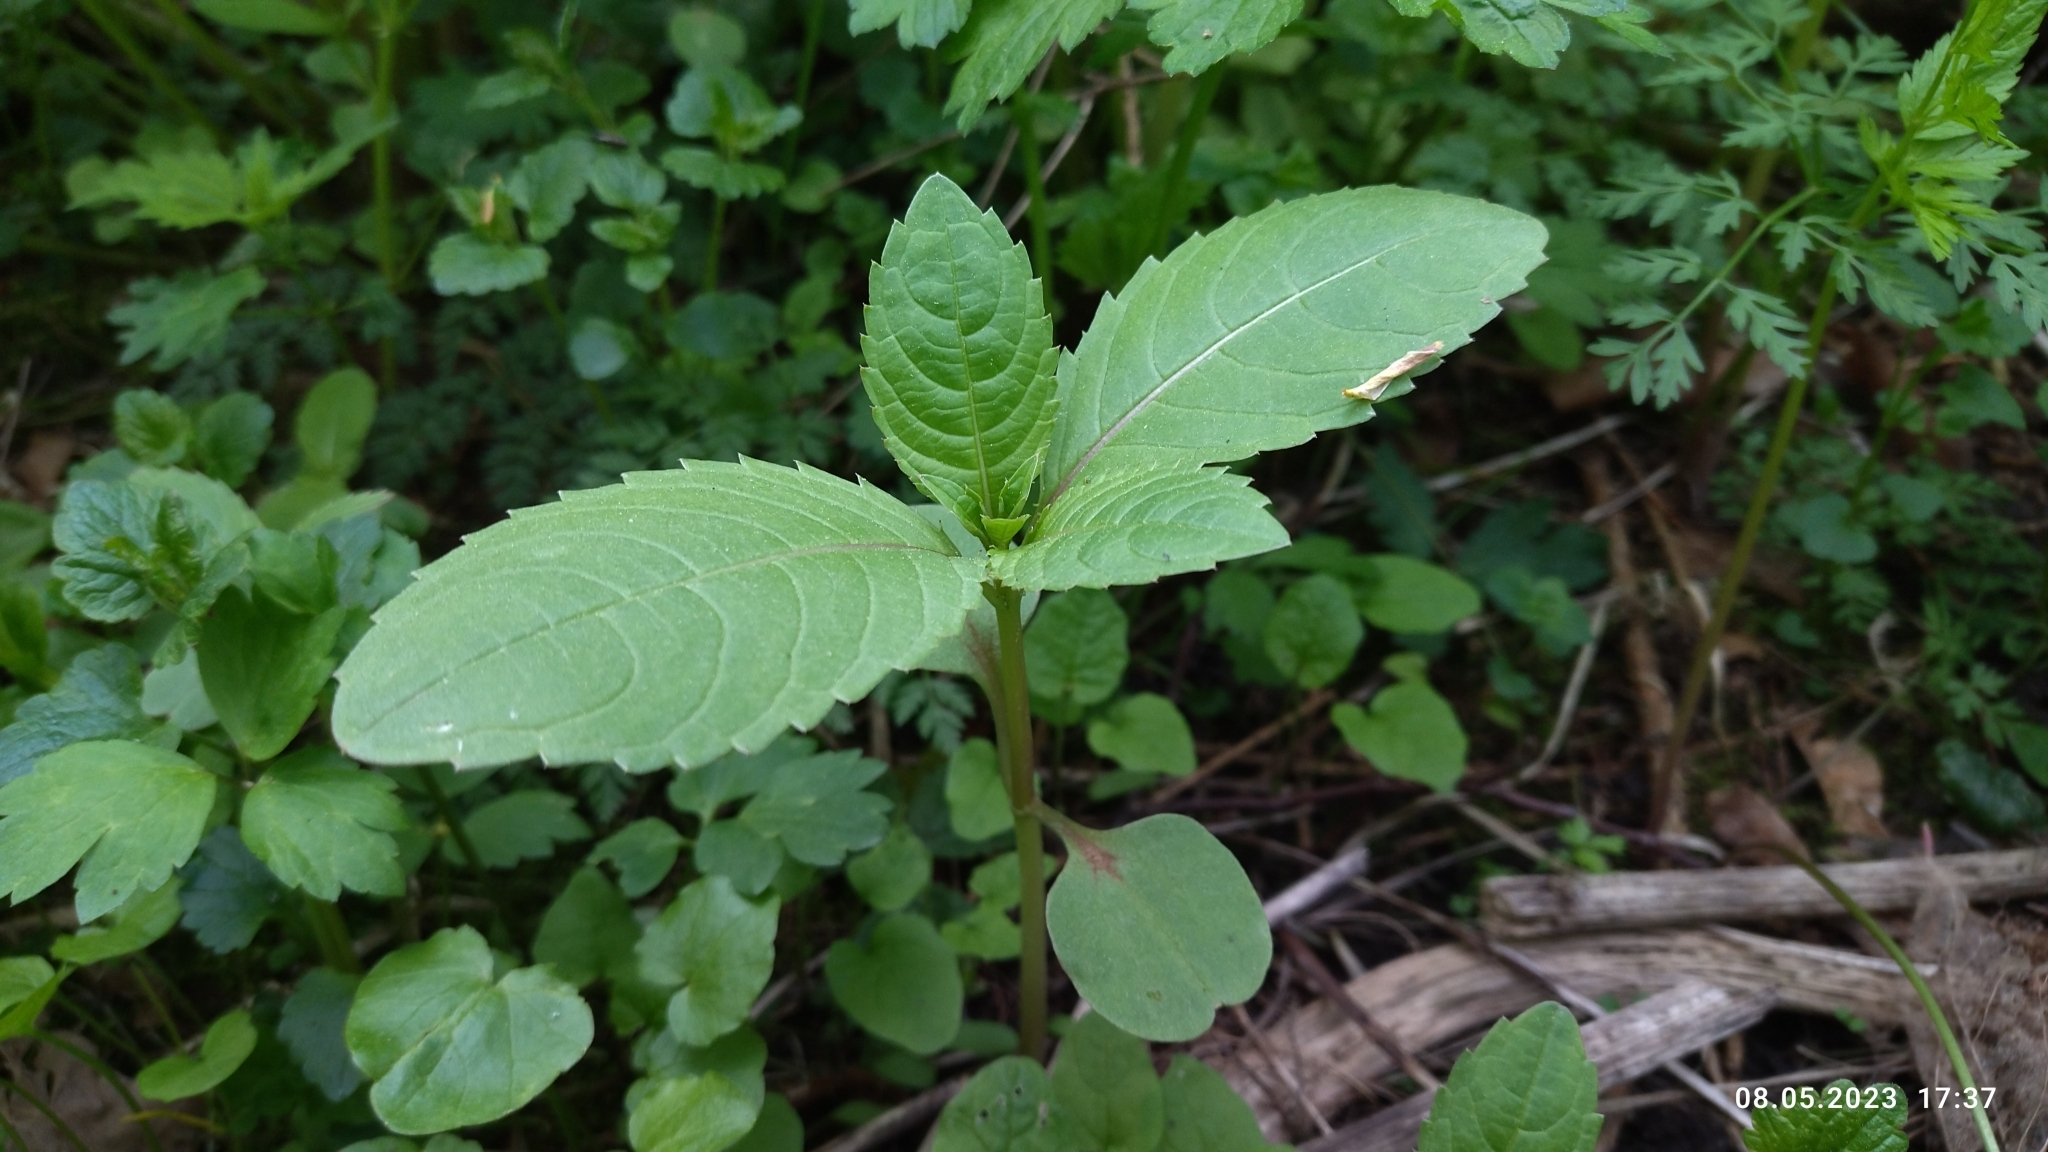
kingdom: Plantae
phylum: Tracheophyta
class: Magnoliopsida
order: Ericales
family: Balsaminaceae
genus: Impatiens
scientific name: Impatiens glandulifera
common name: Himalayan balsam
